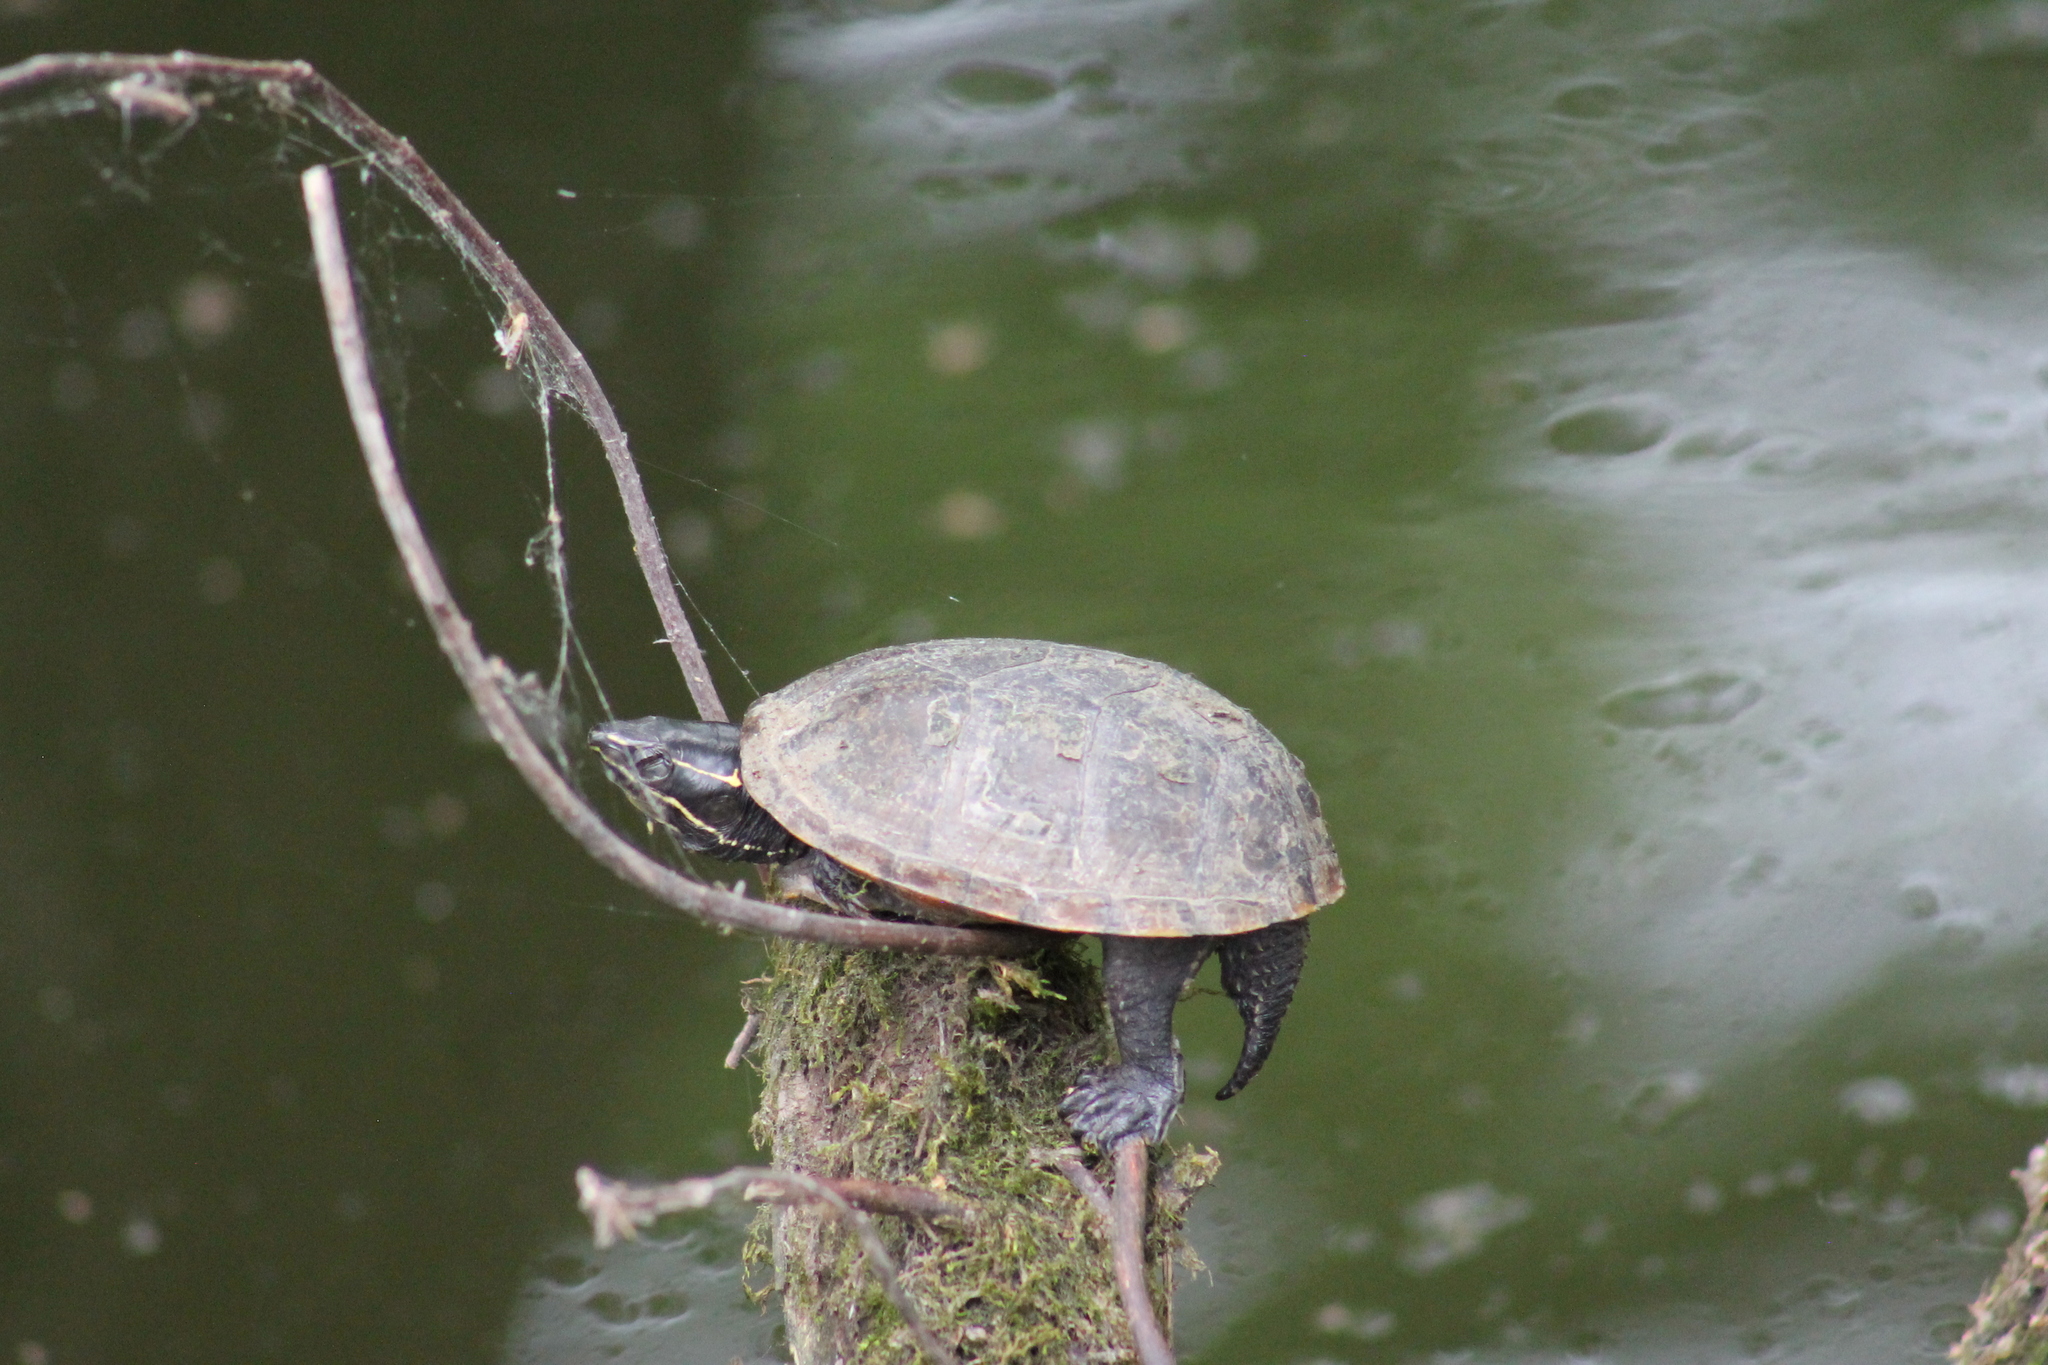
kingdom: Animalia
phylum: Chordata
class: Testudines
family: Kinosternidae
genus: Sternotherus
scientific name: Sternotherus odoratus
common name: Common musk turtle
